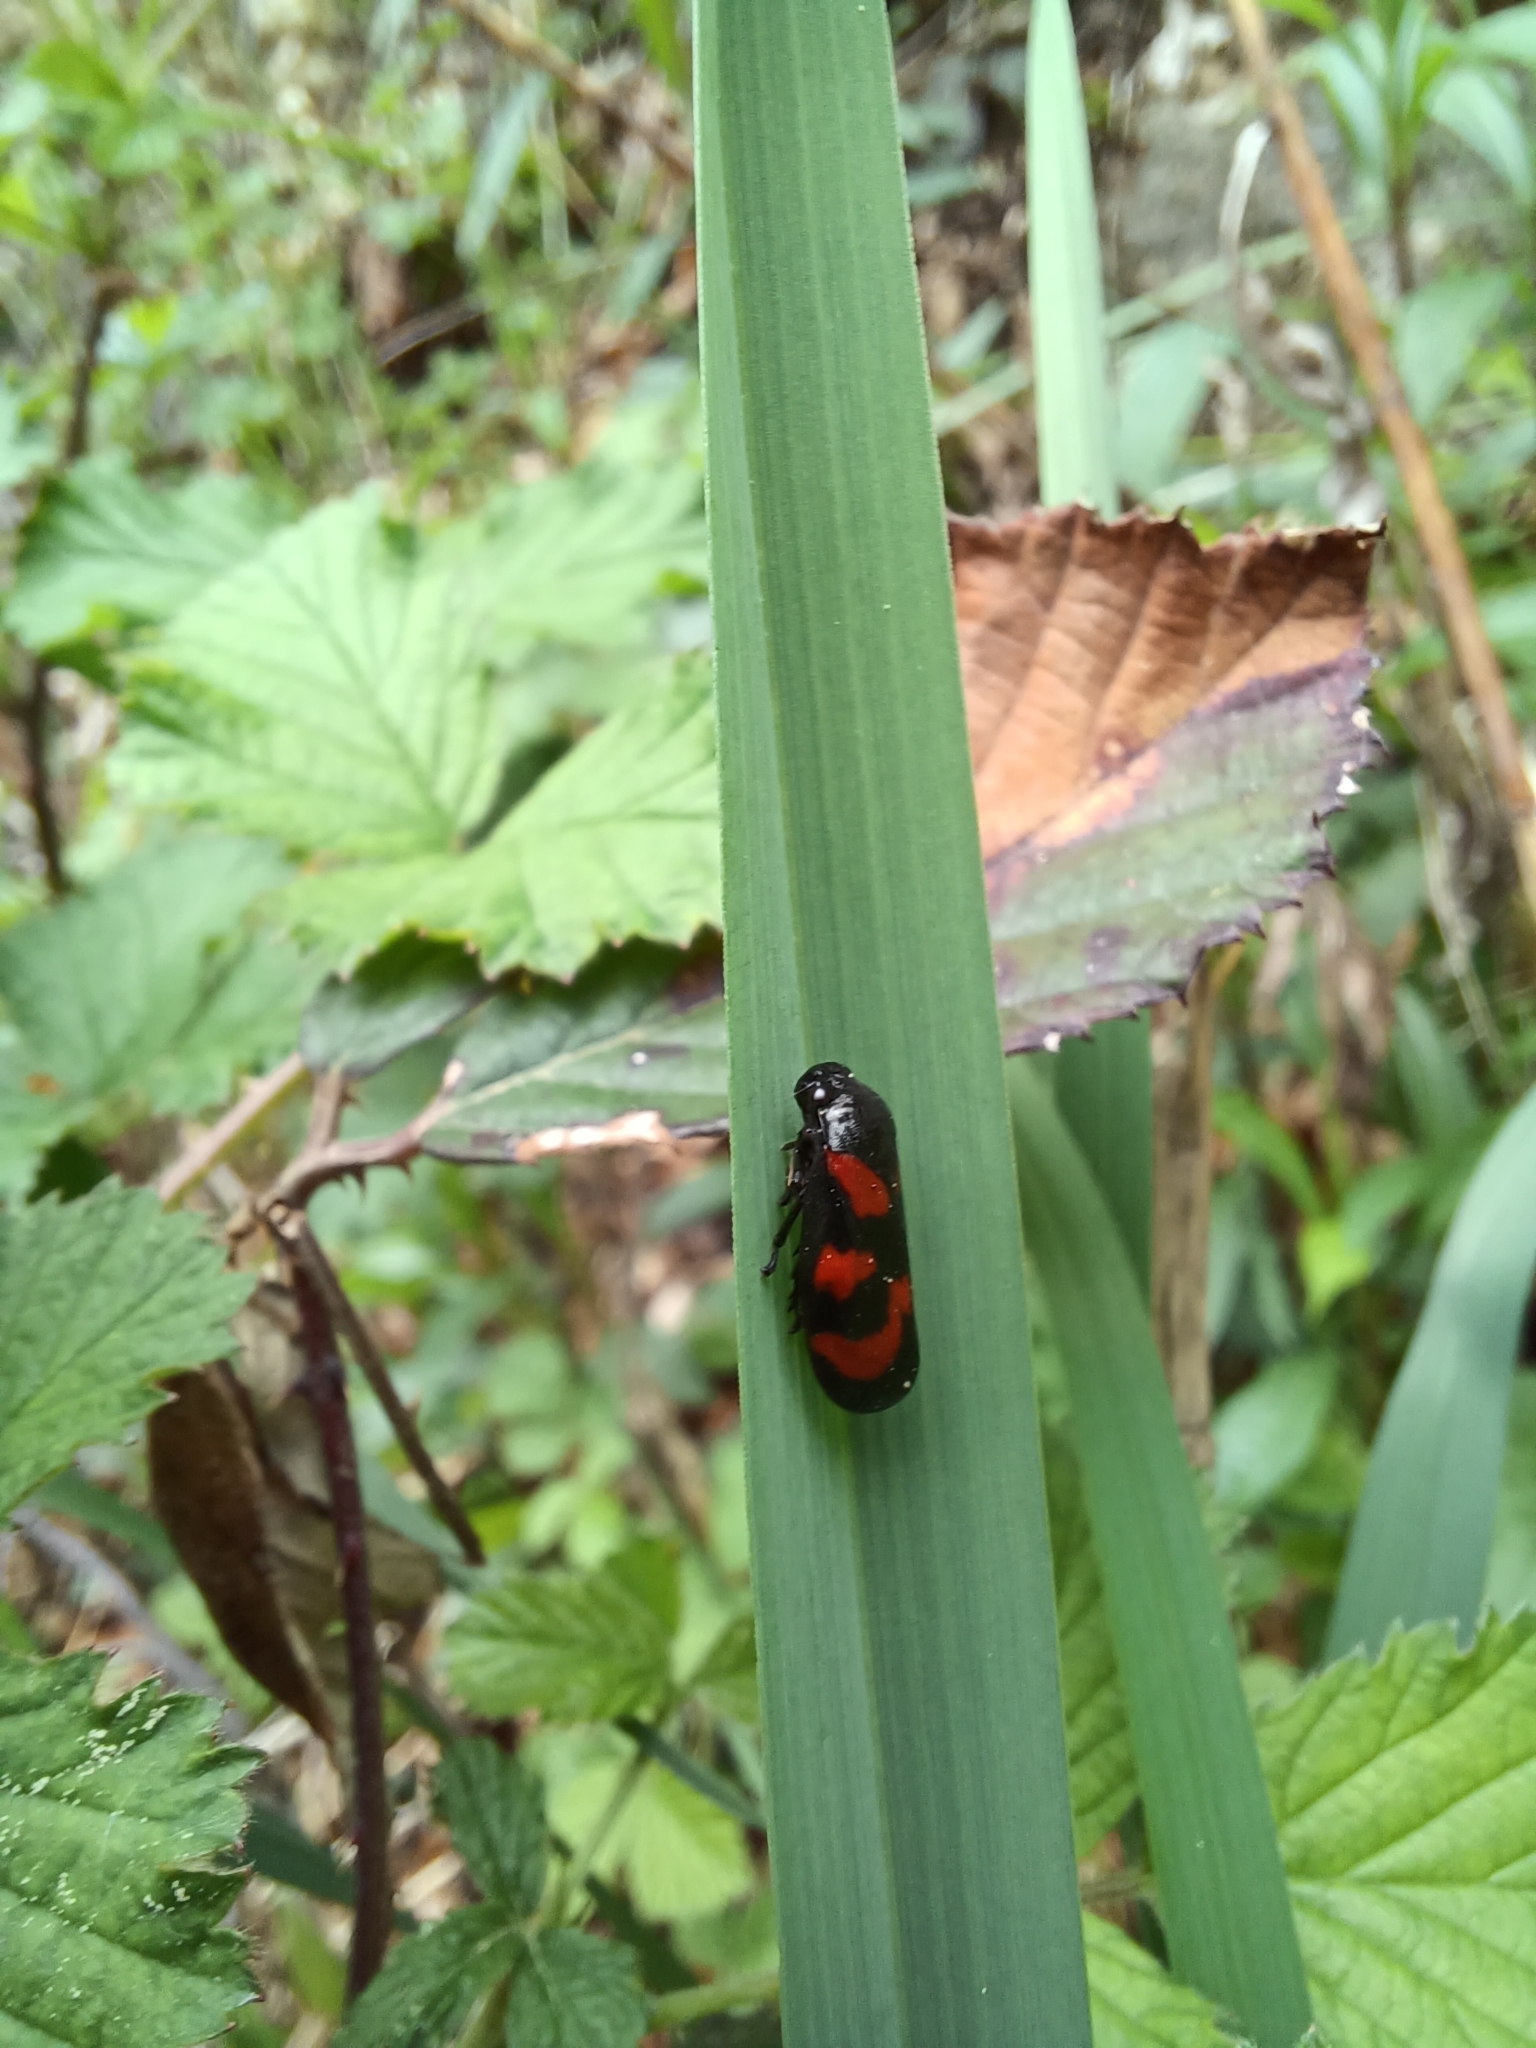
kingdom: Animalia
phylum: Arthropoda
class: Insecta
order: Hemiptera
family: Cercopidae
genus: Cercopis
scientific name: Cercopis vulnerata
